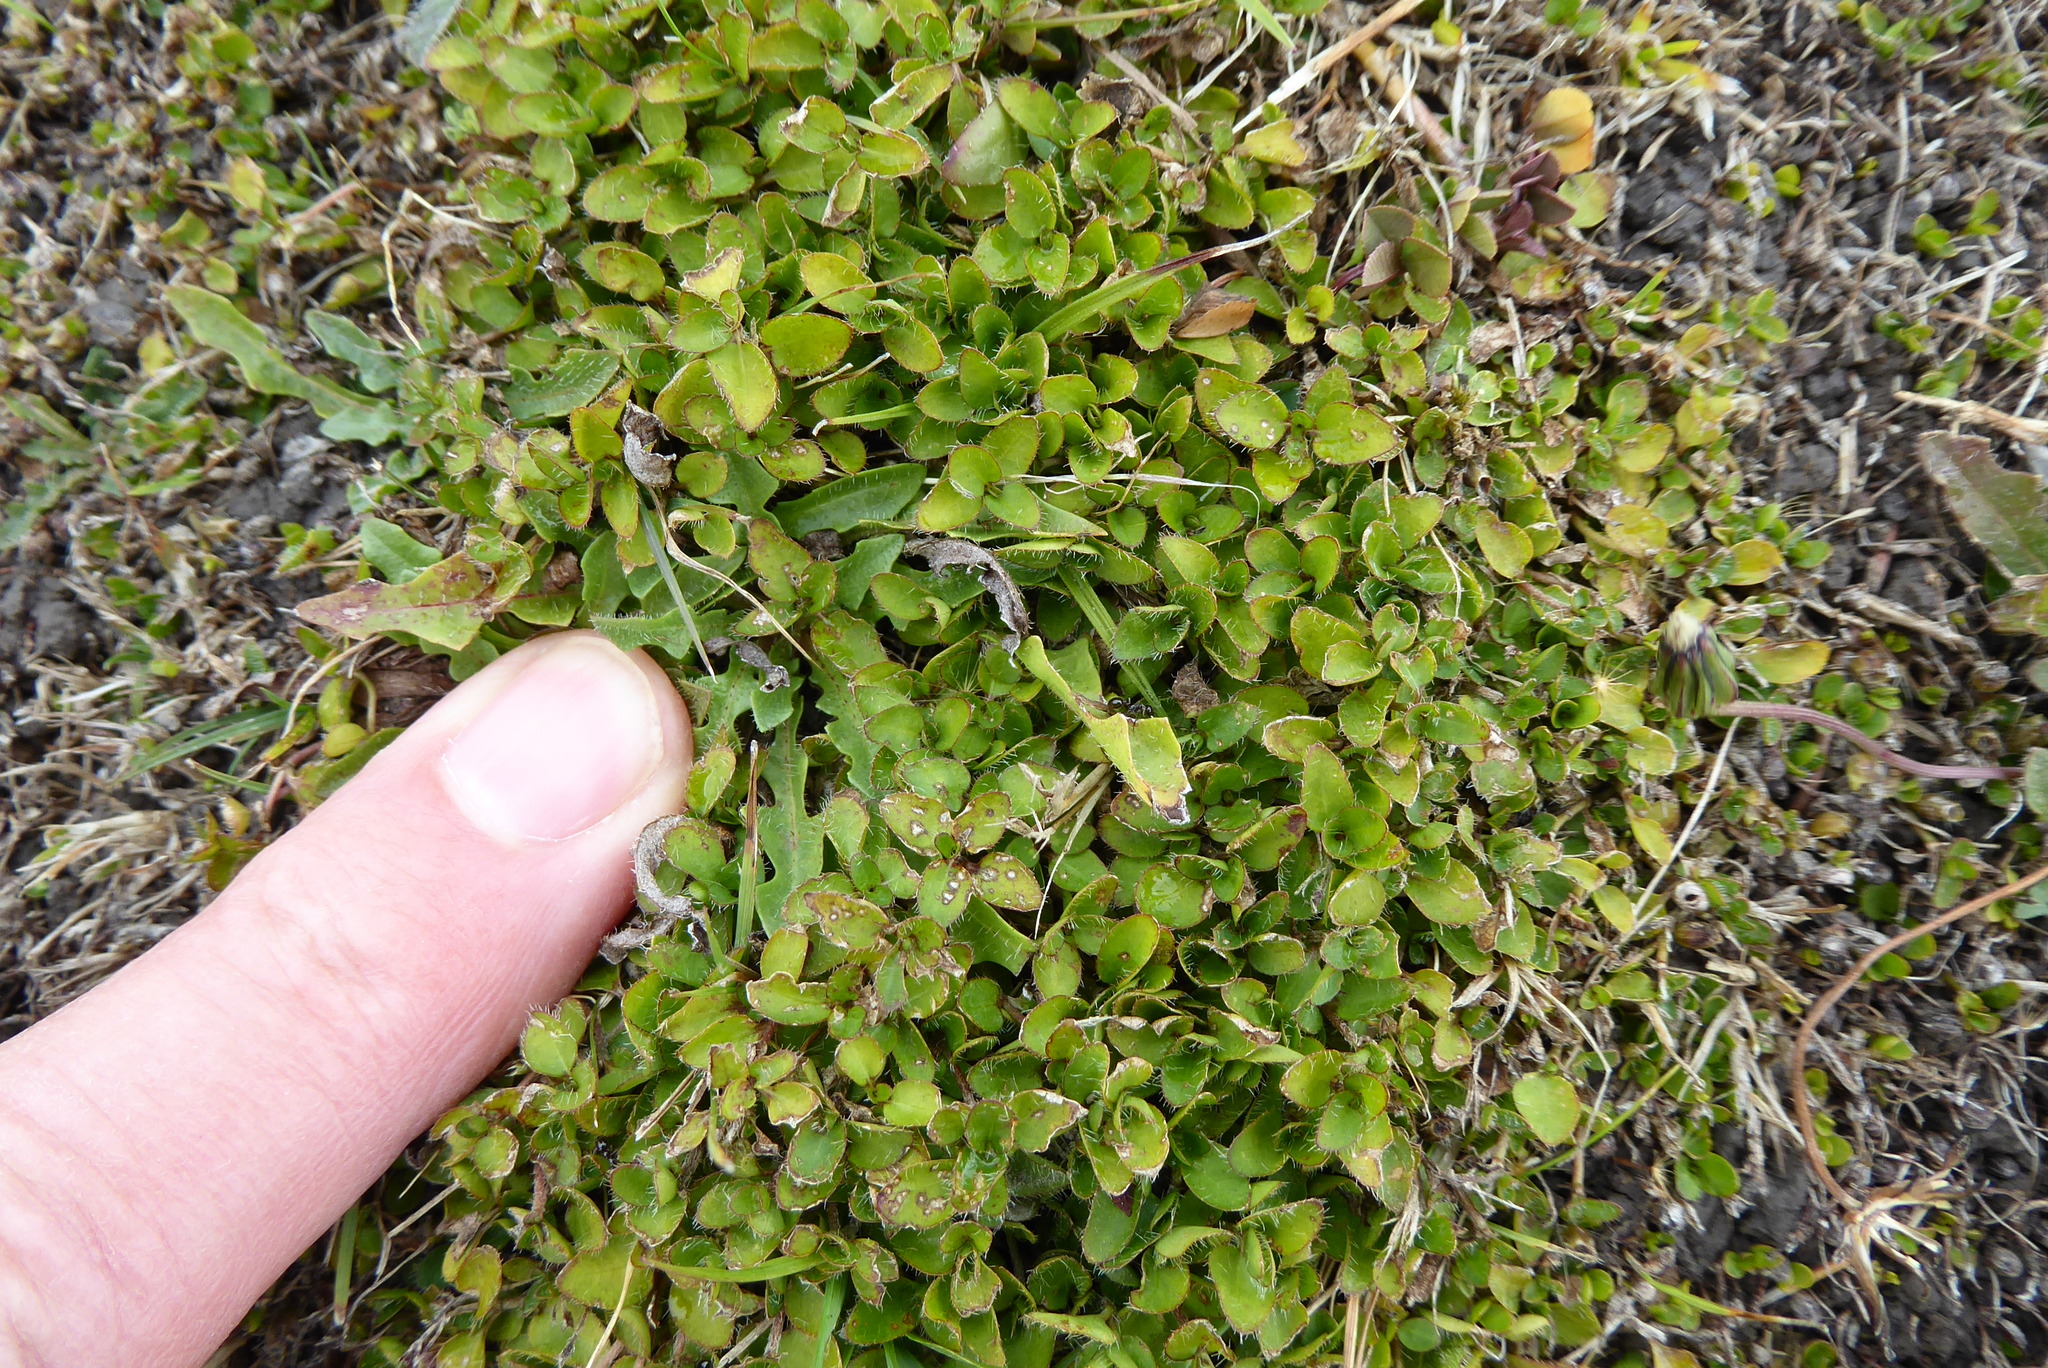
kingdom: Plantae
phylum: Tracheophyta
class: Magnoliopsida
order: Gentianales
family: Rubiaceae
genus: Leptostigma
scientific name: Leptostigma setulosum
